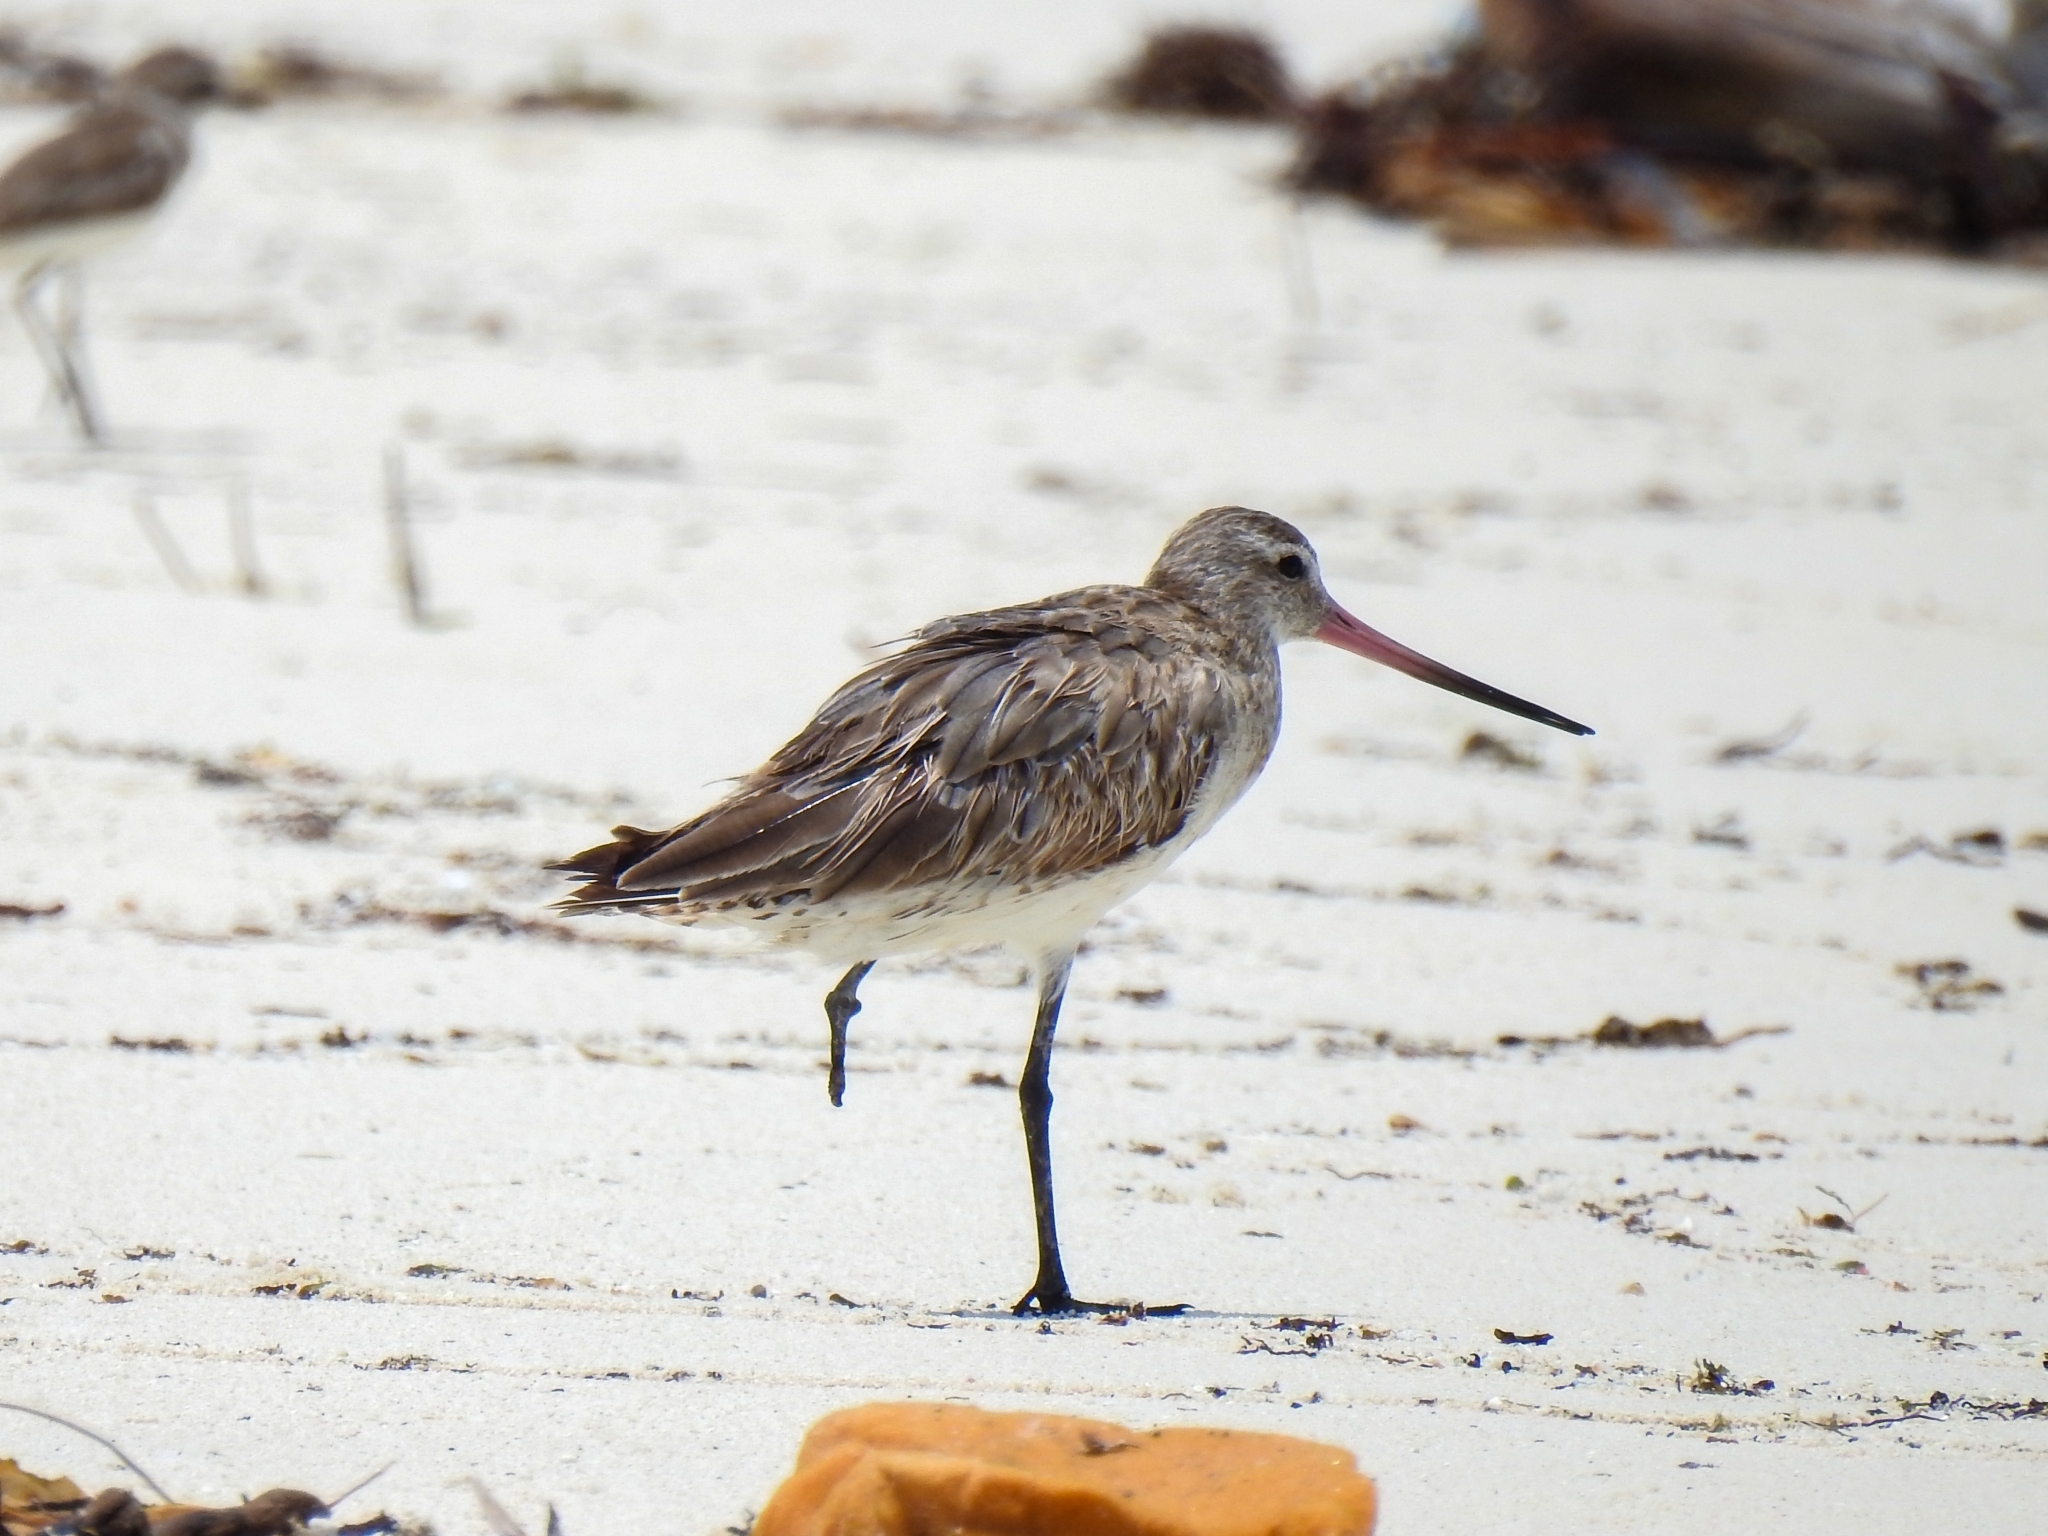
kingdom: Animalia
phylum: Chordata
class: Aves
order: Charadriiformes
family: Scolopacidae
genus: Limosa
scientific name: Limosa lapponica
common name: Bar-tailed godwit
